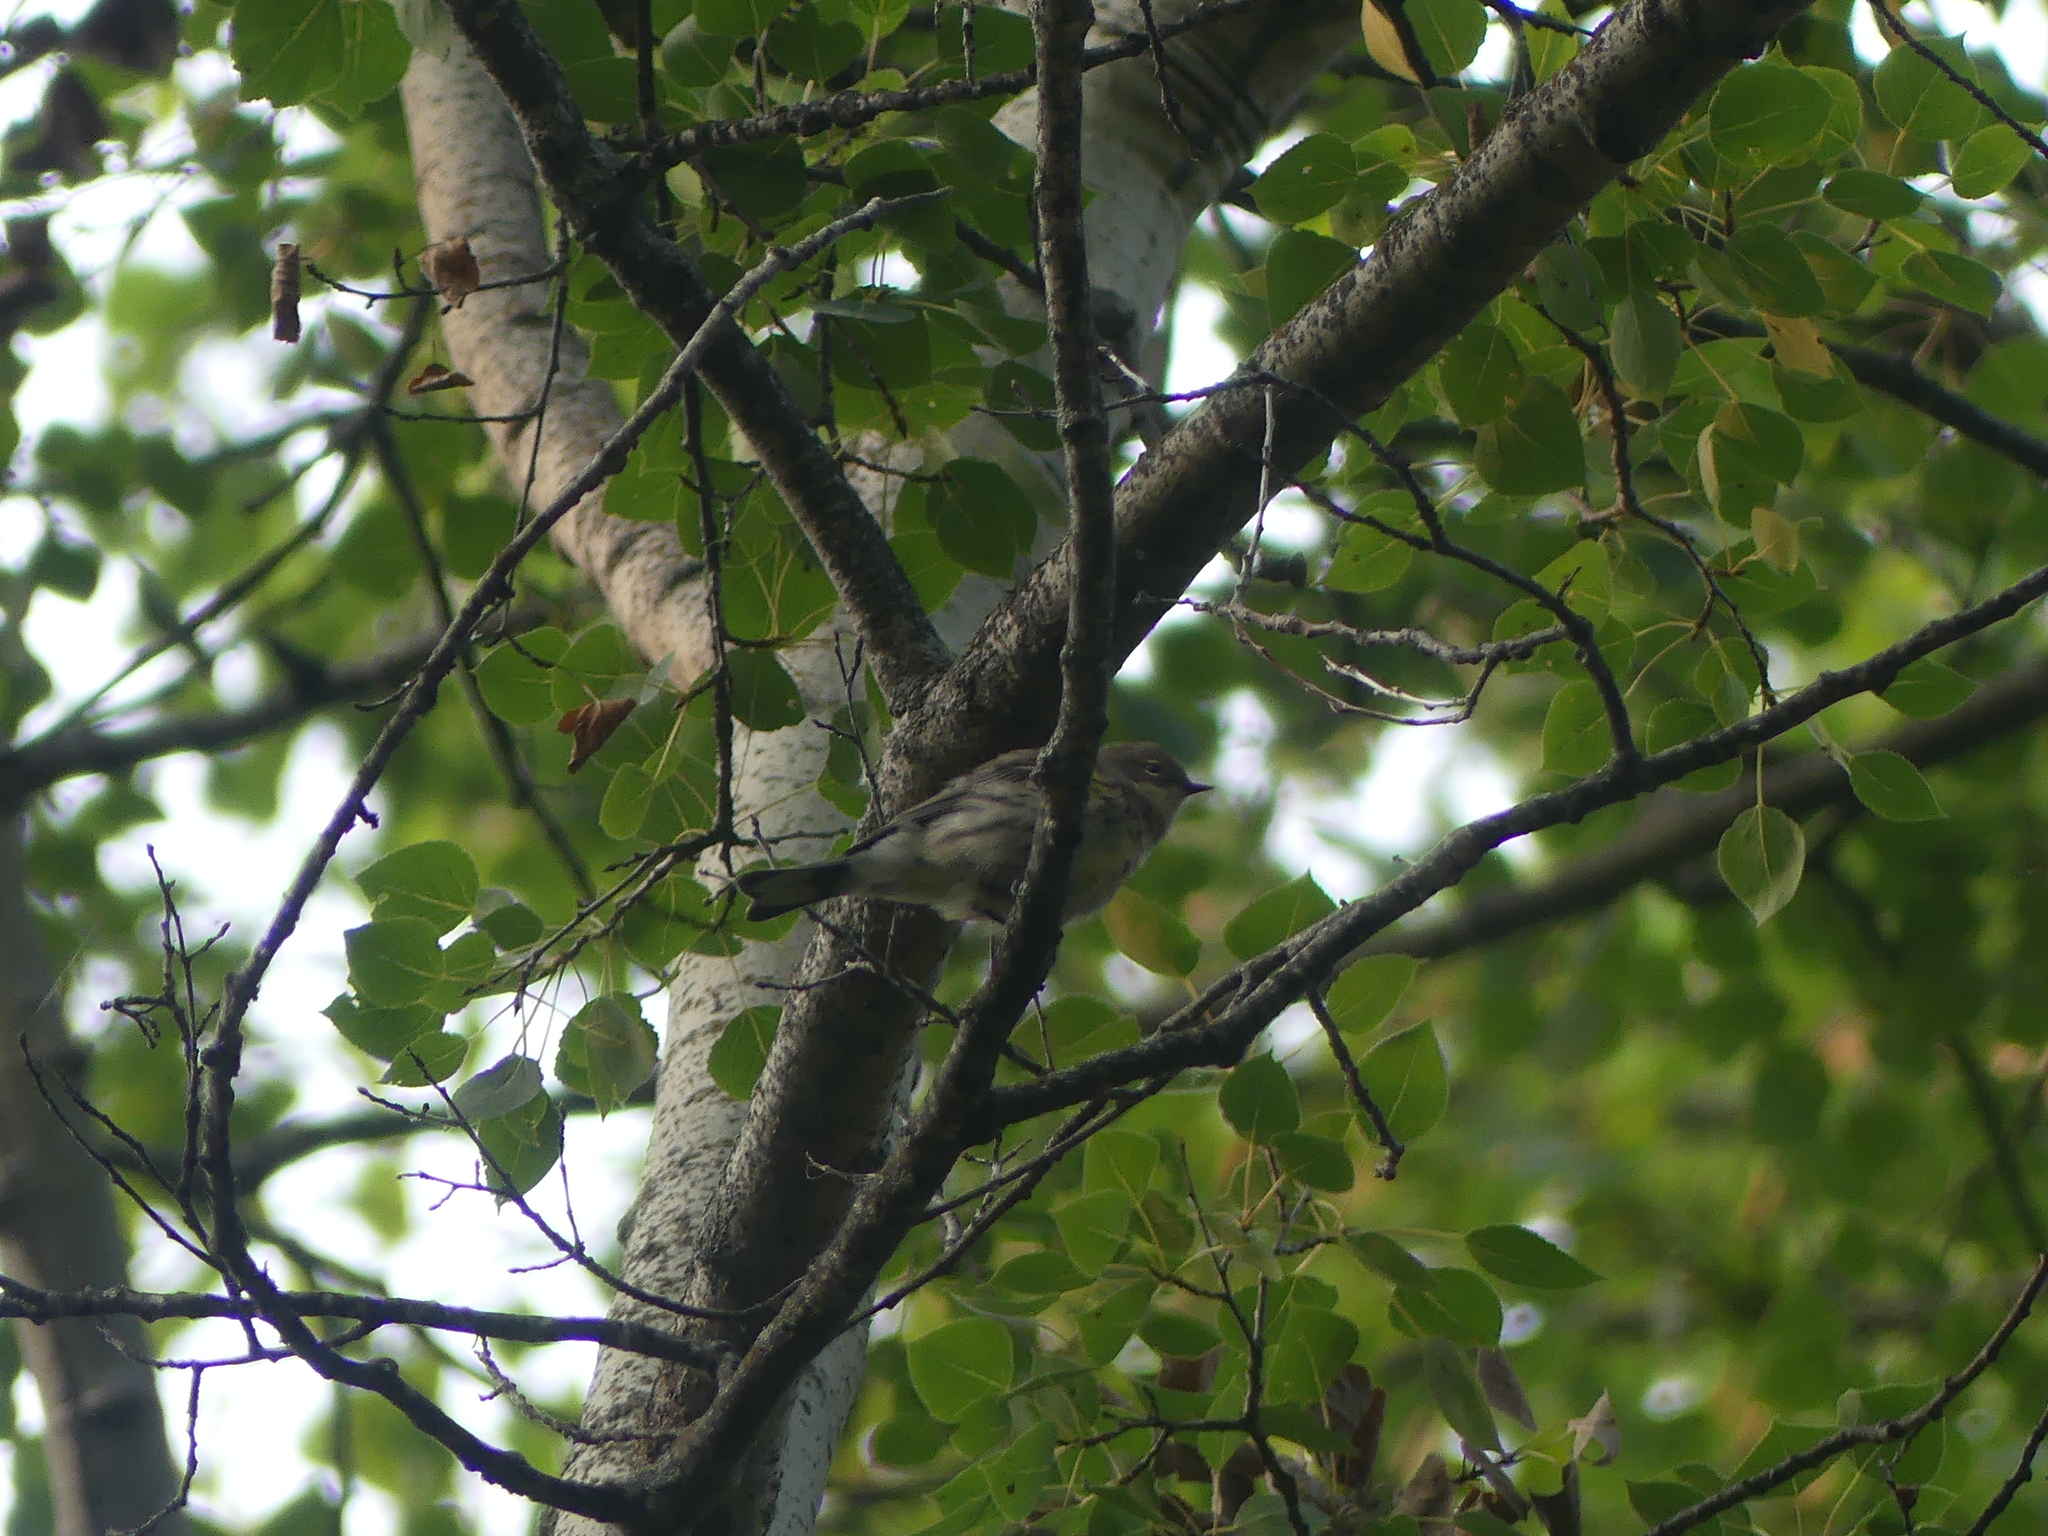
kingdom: Animalia
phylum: Chordata
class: Aves
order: Passeriformes
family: Parulidae
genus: Setophaga
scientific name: Setophaga coronata
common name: Myrtle warbler
